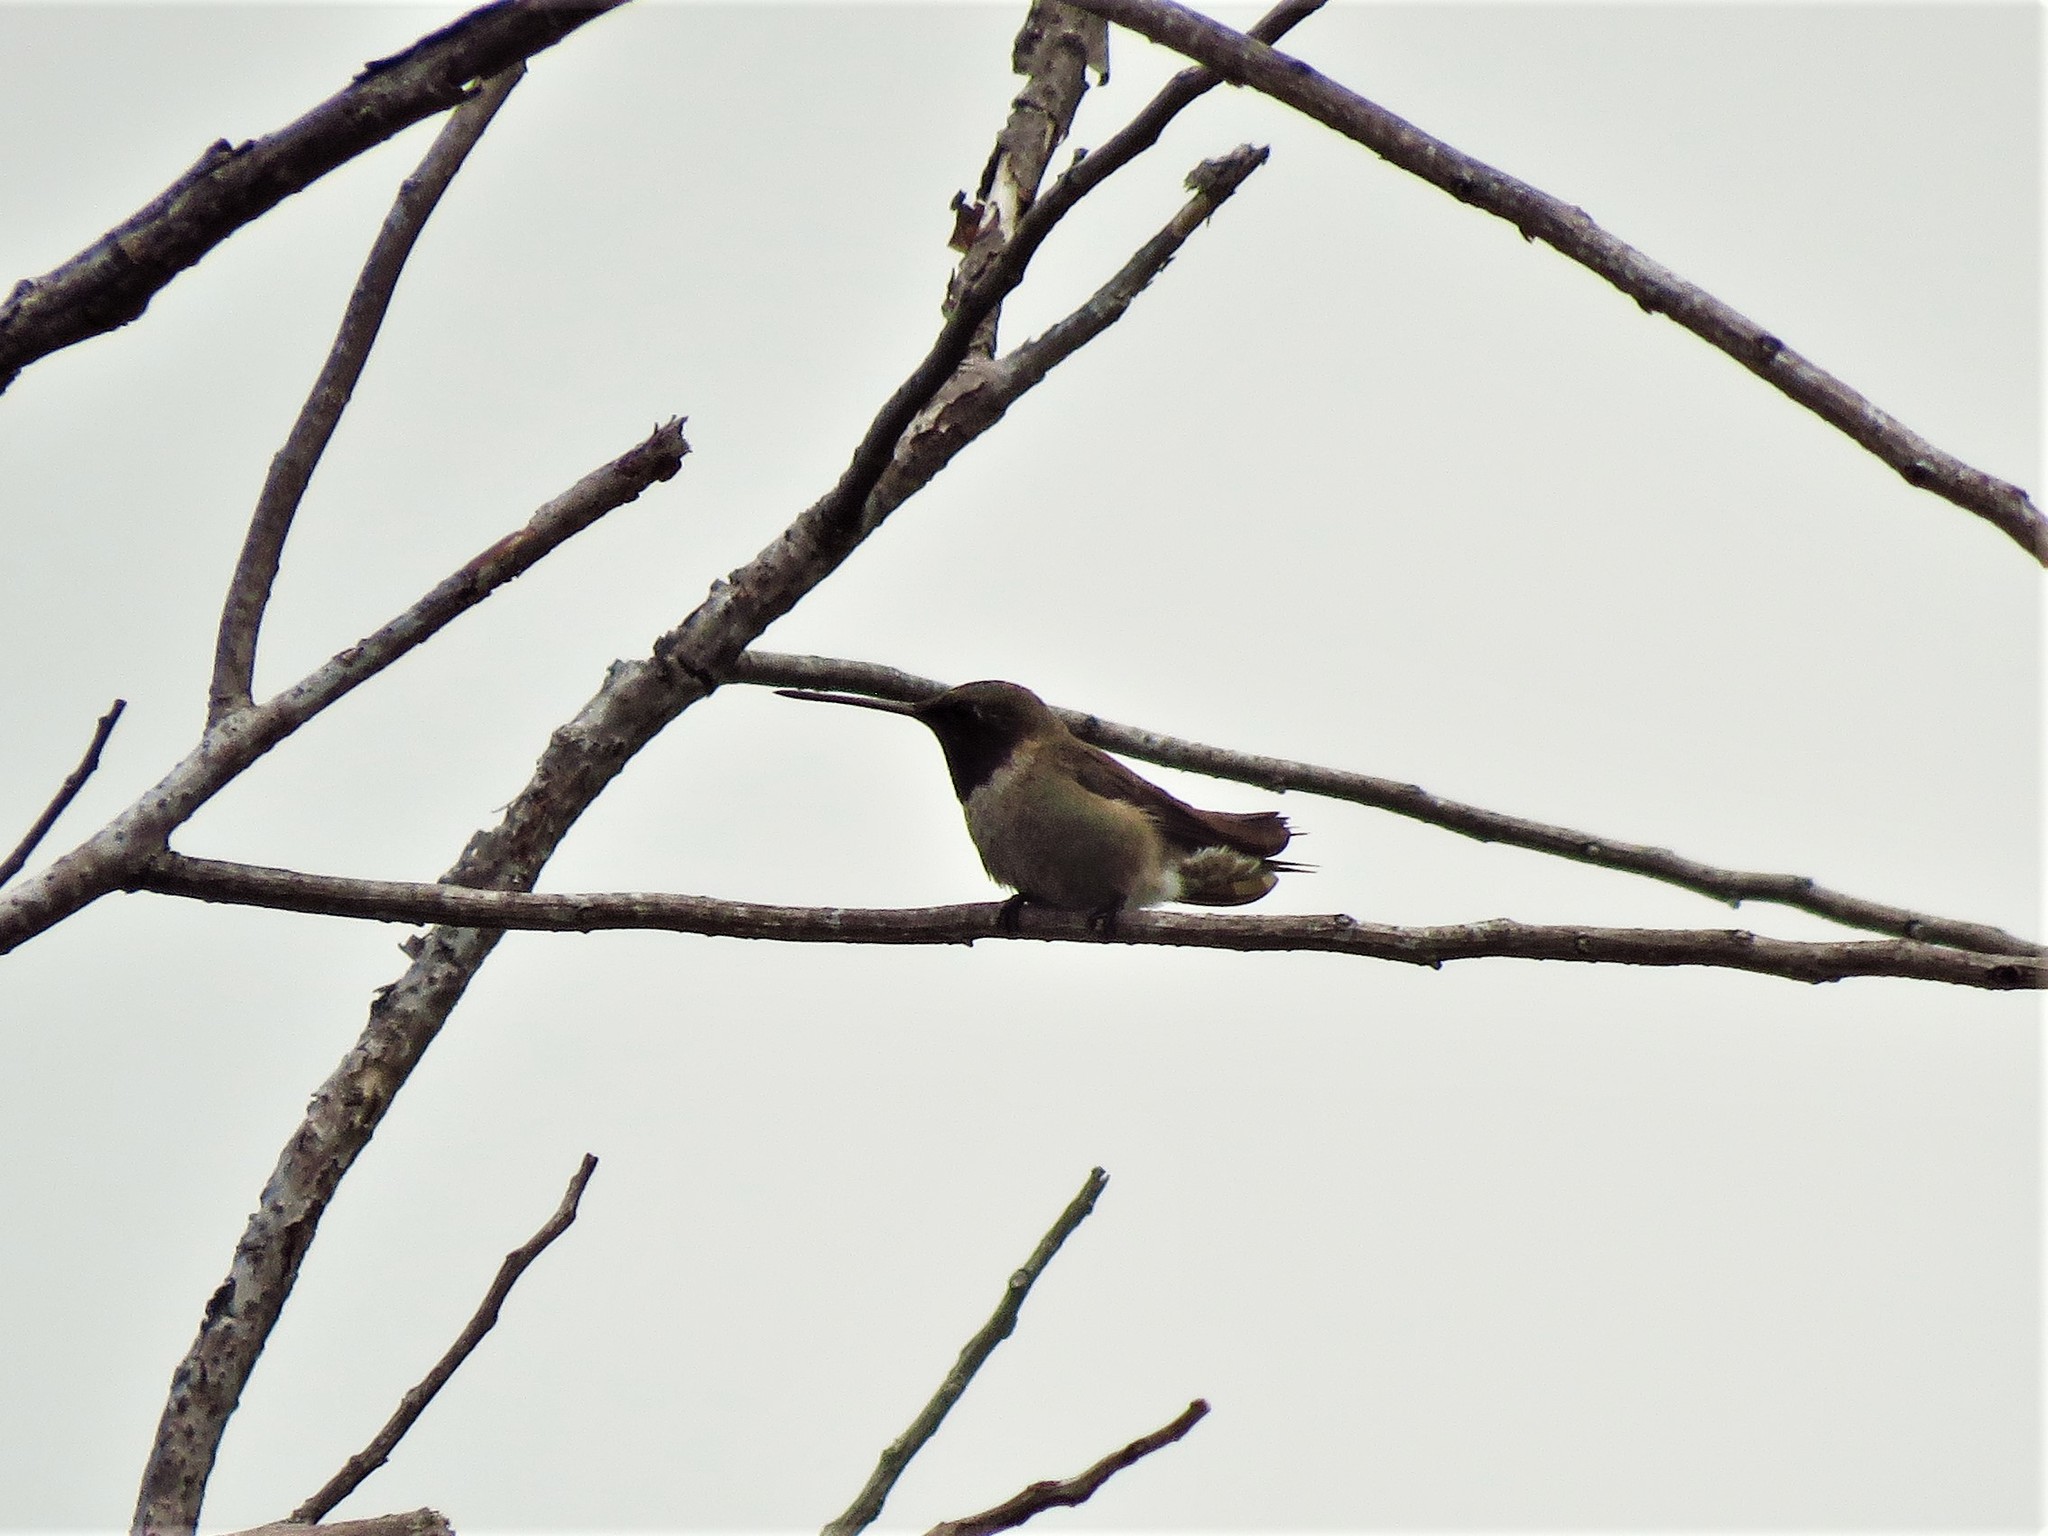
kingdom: Animalia
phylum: Chordata
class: Aves
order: Apodiformes
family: Trochilidae
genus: Archilochus
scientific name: Archilochus alexandri
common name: Black-chinned hummingbird
